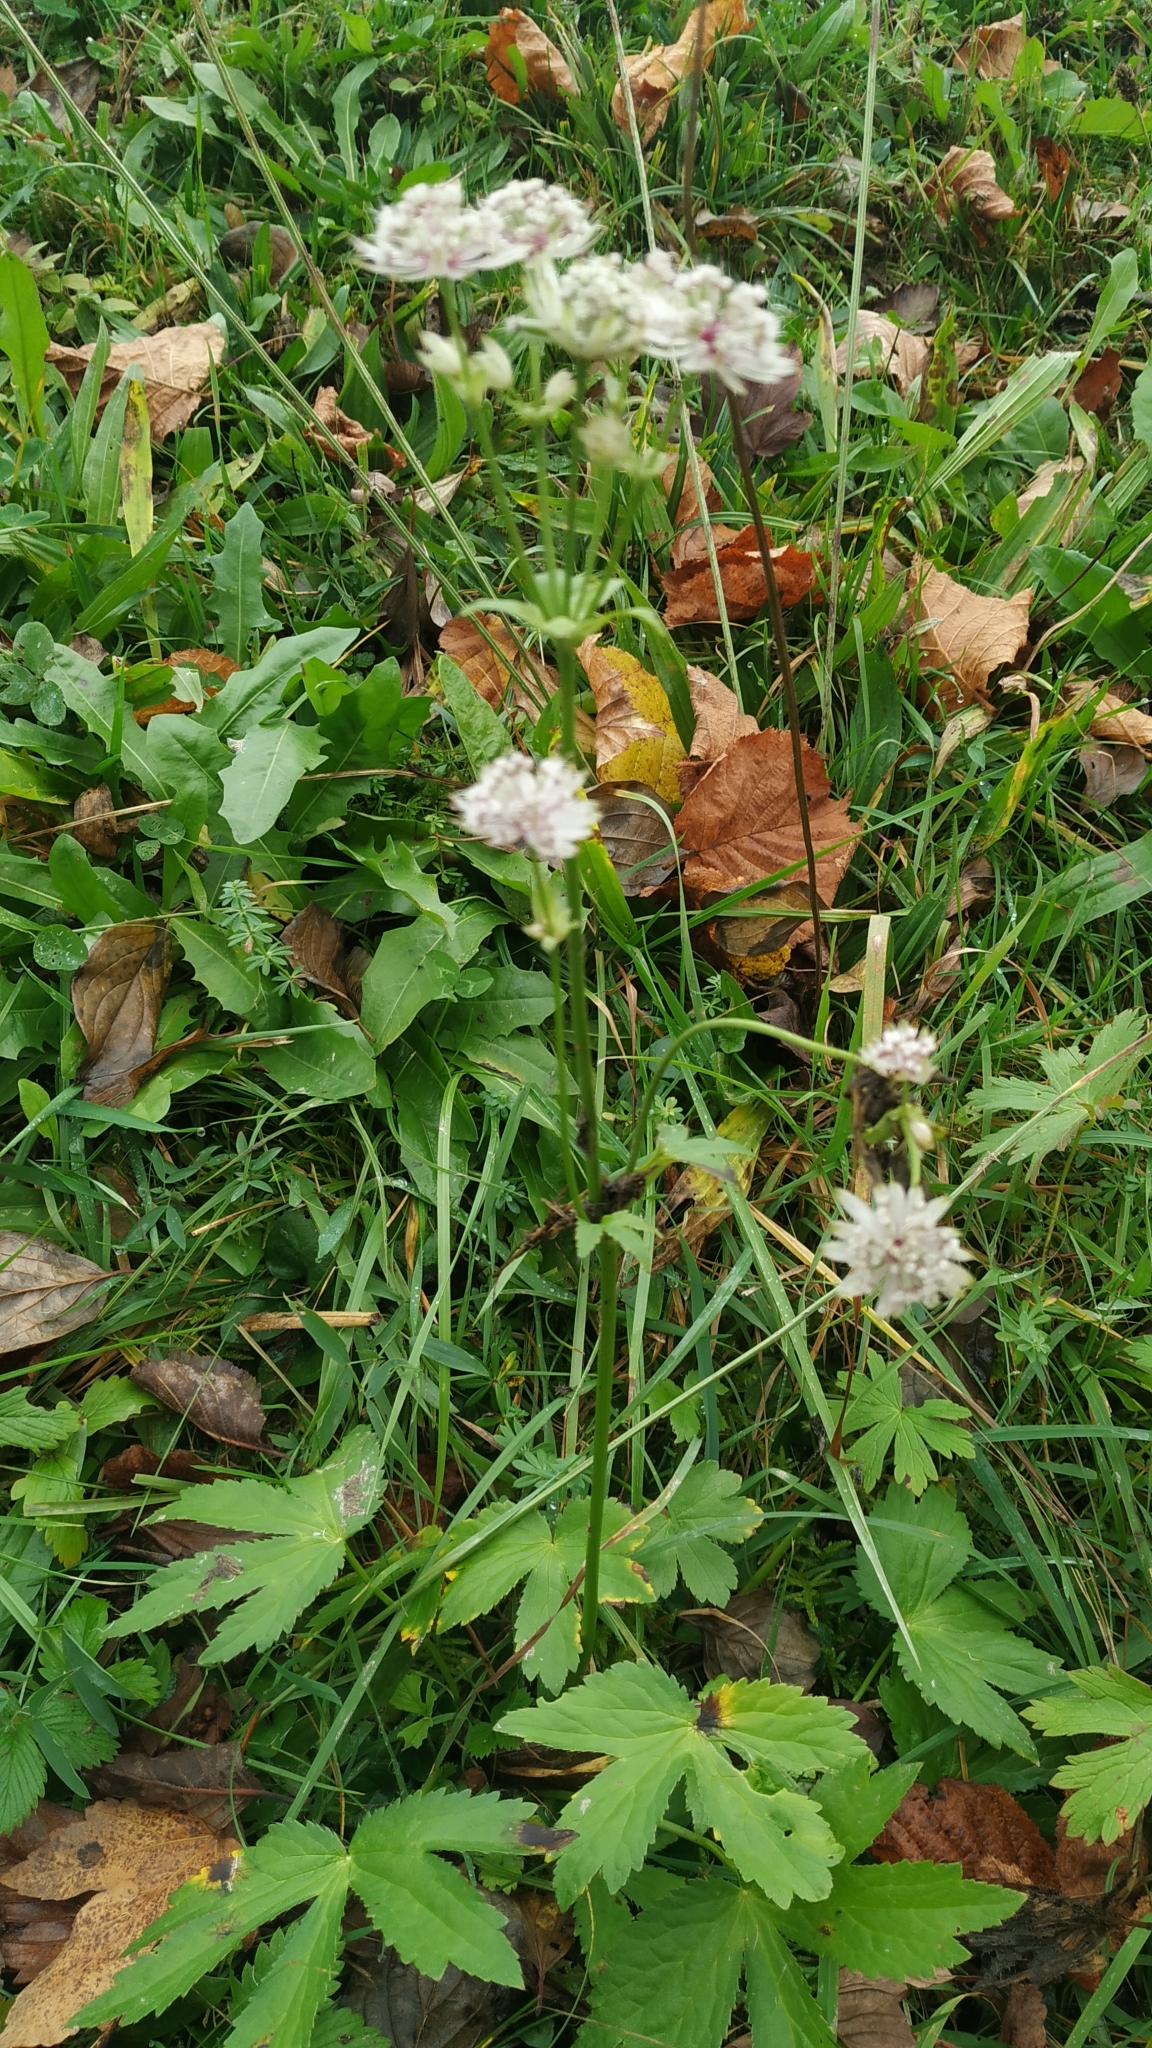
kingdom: Plantae
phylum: Tracheophyta
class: Magnoliopsida
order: Apiales
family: Apiaceae
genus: Astrantia
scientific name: Astrantia major
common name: Greater masterwort
